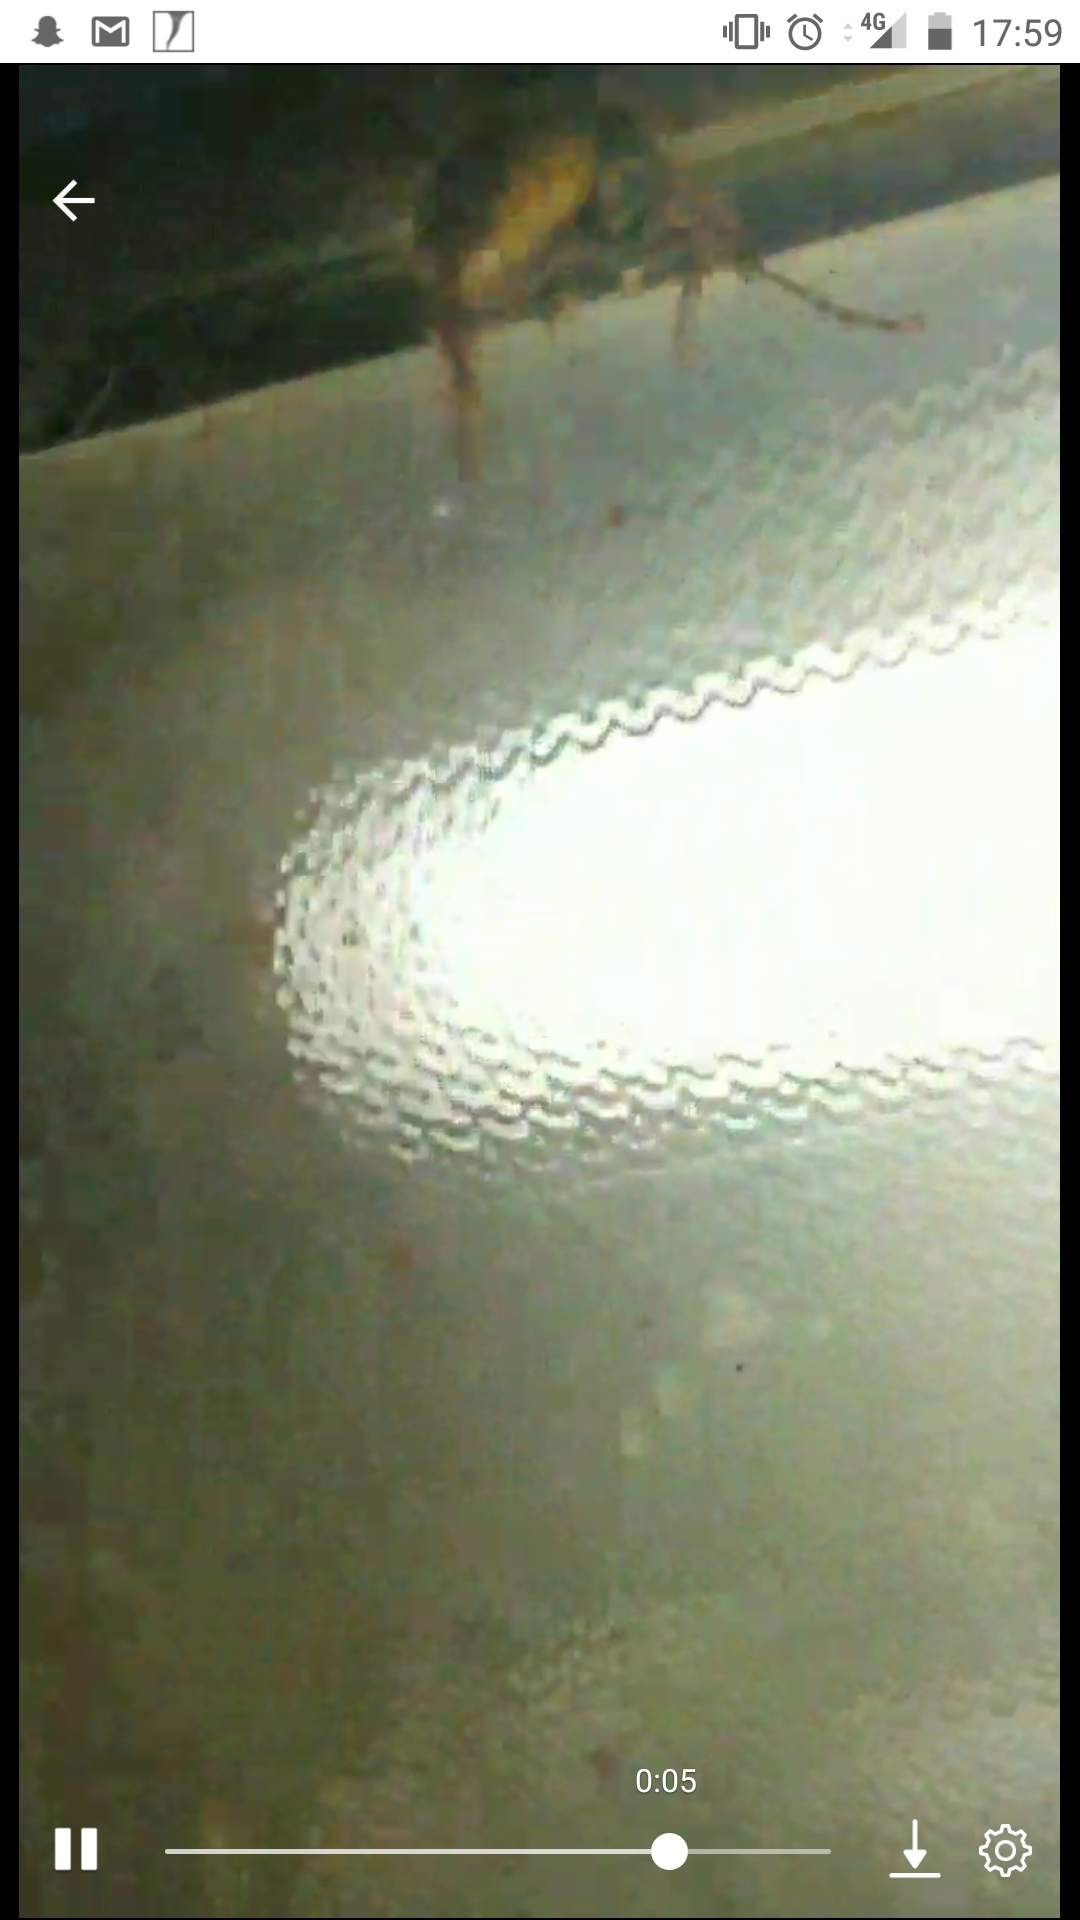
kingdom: Animalia
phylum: Arthropoda
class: Insecta
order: Hymenoptera
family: Vespidae
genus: Vespa
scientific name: Vespa crabro
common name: Hornet
